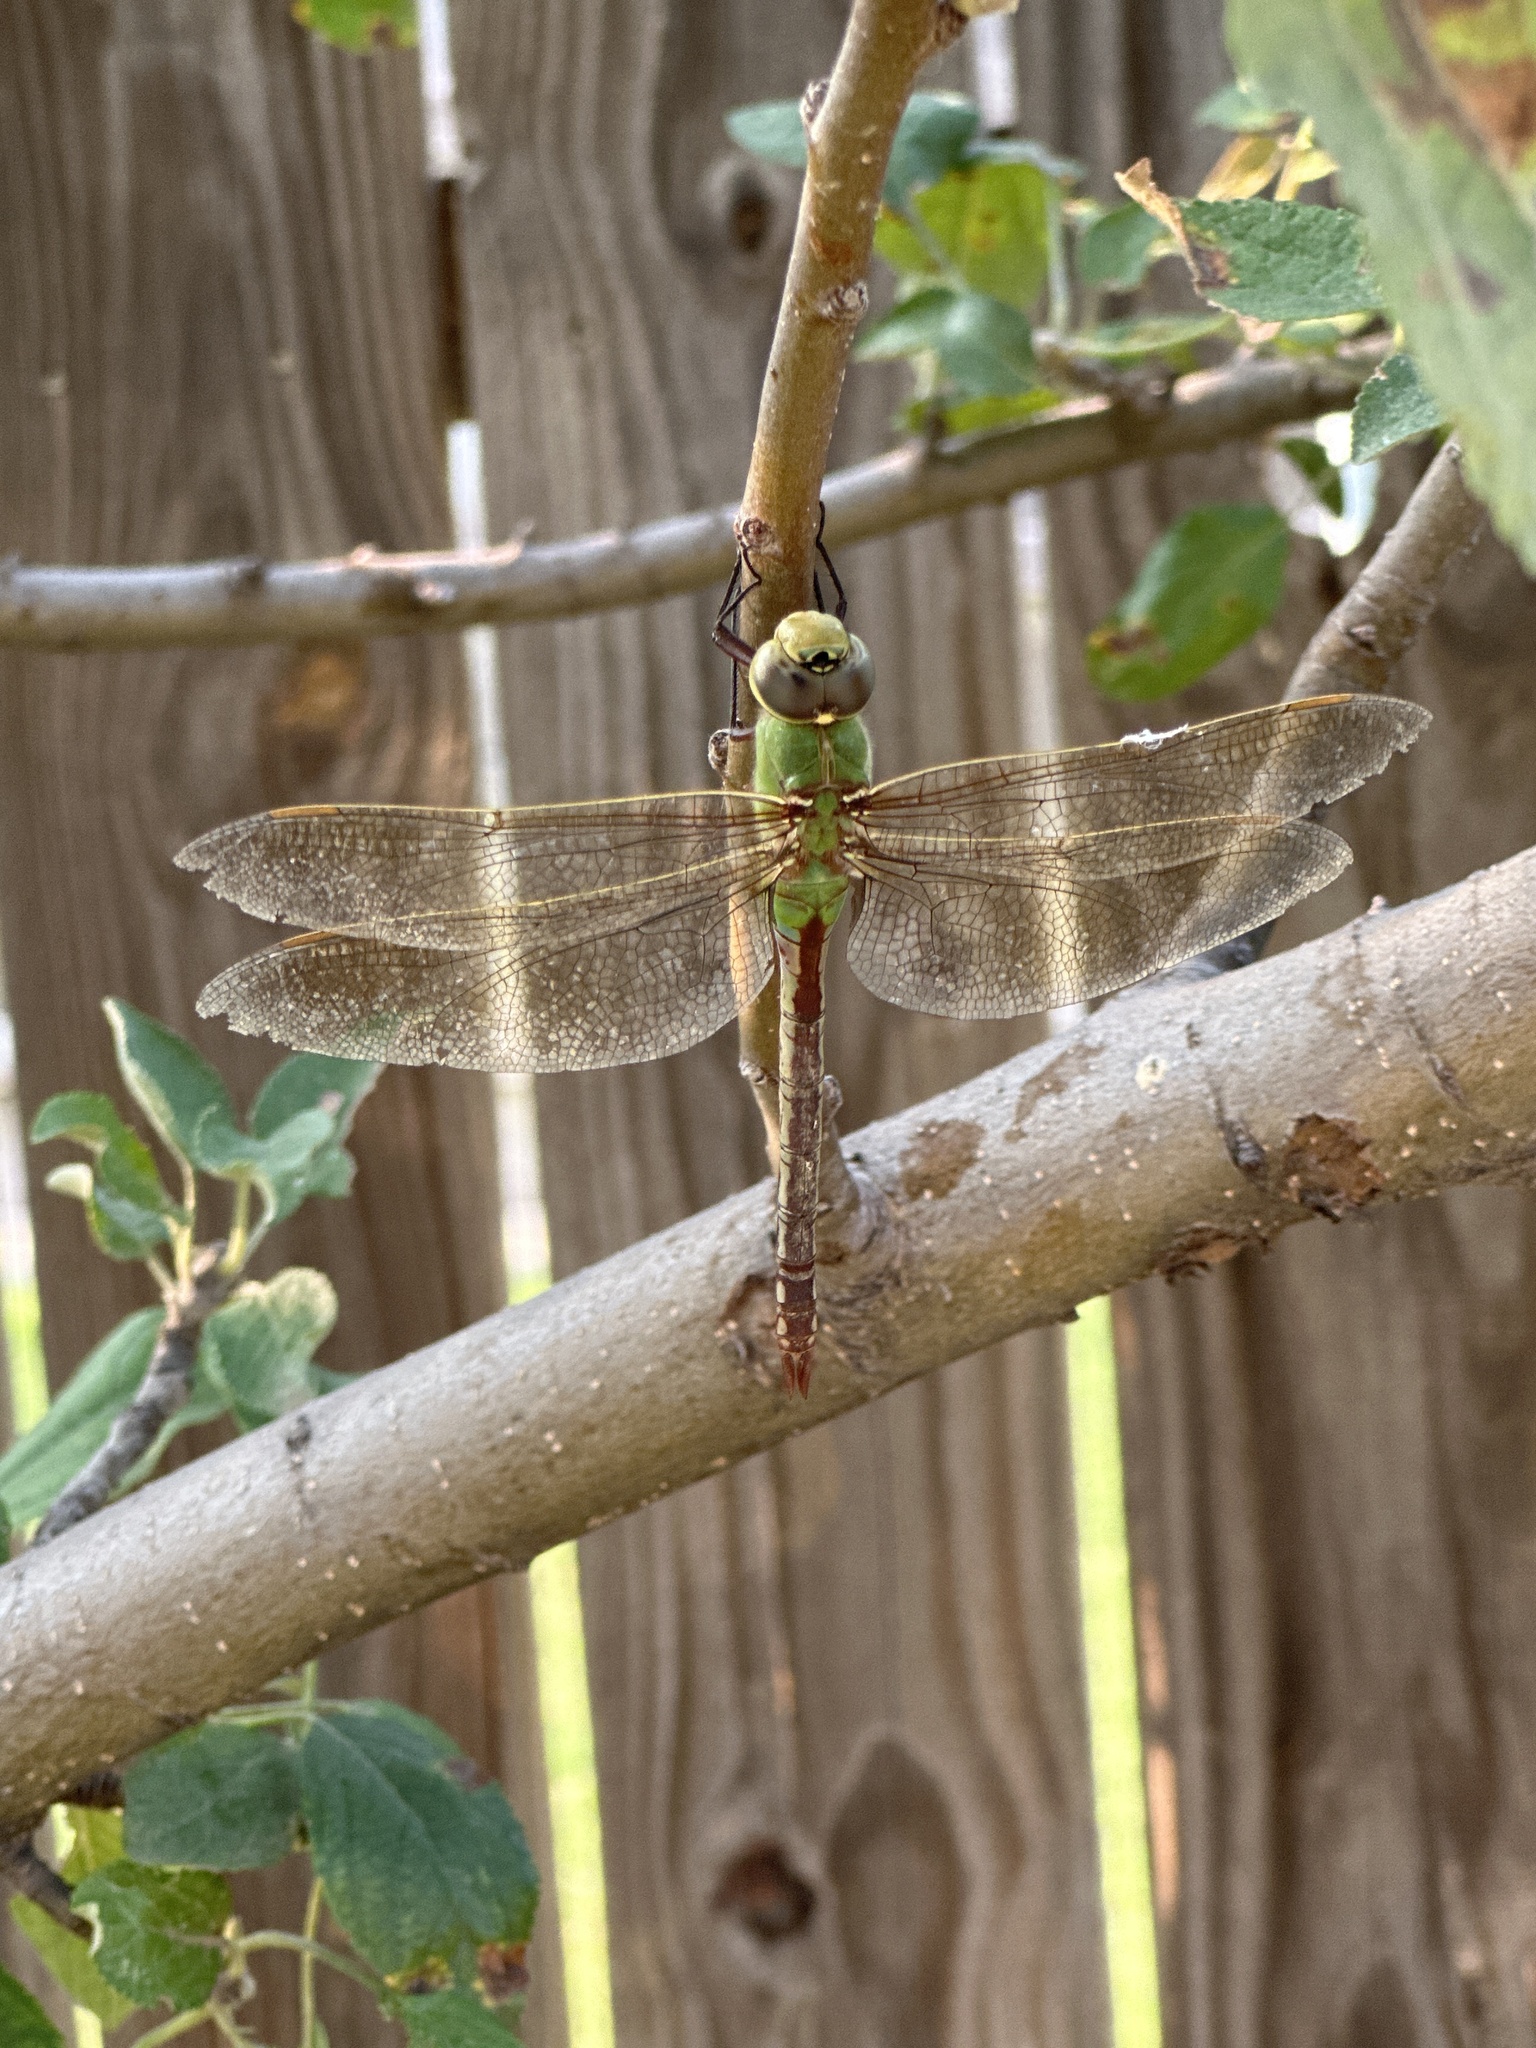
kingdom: Animalia
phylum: Arthropoda
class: Insecta
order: Odonata
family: Aeshnidae
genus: Anax
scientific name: Anax junius
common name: Common green darner
